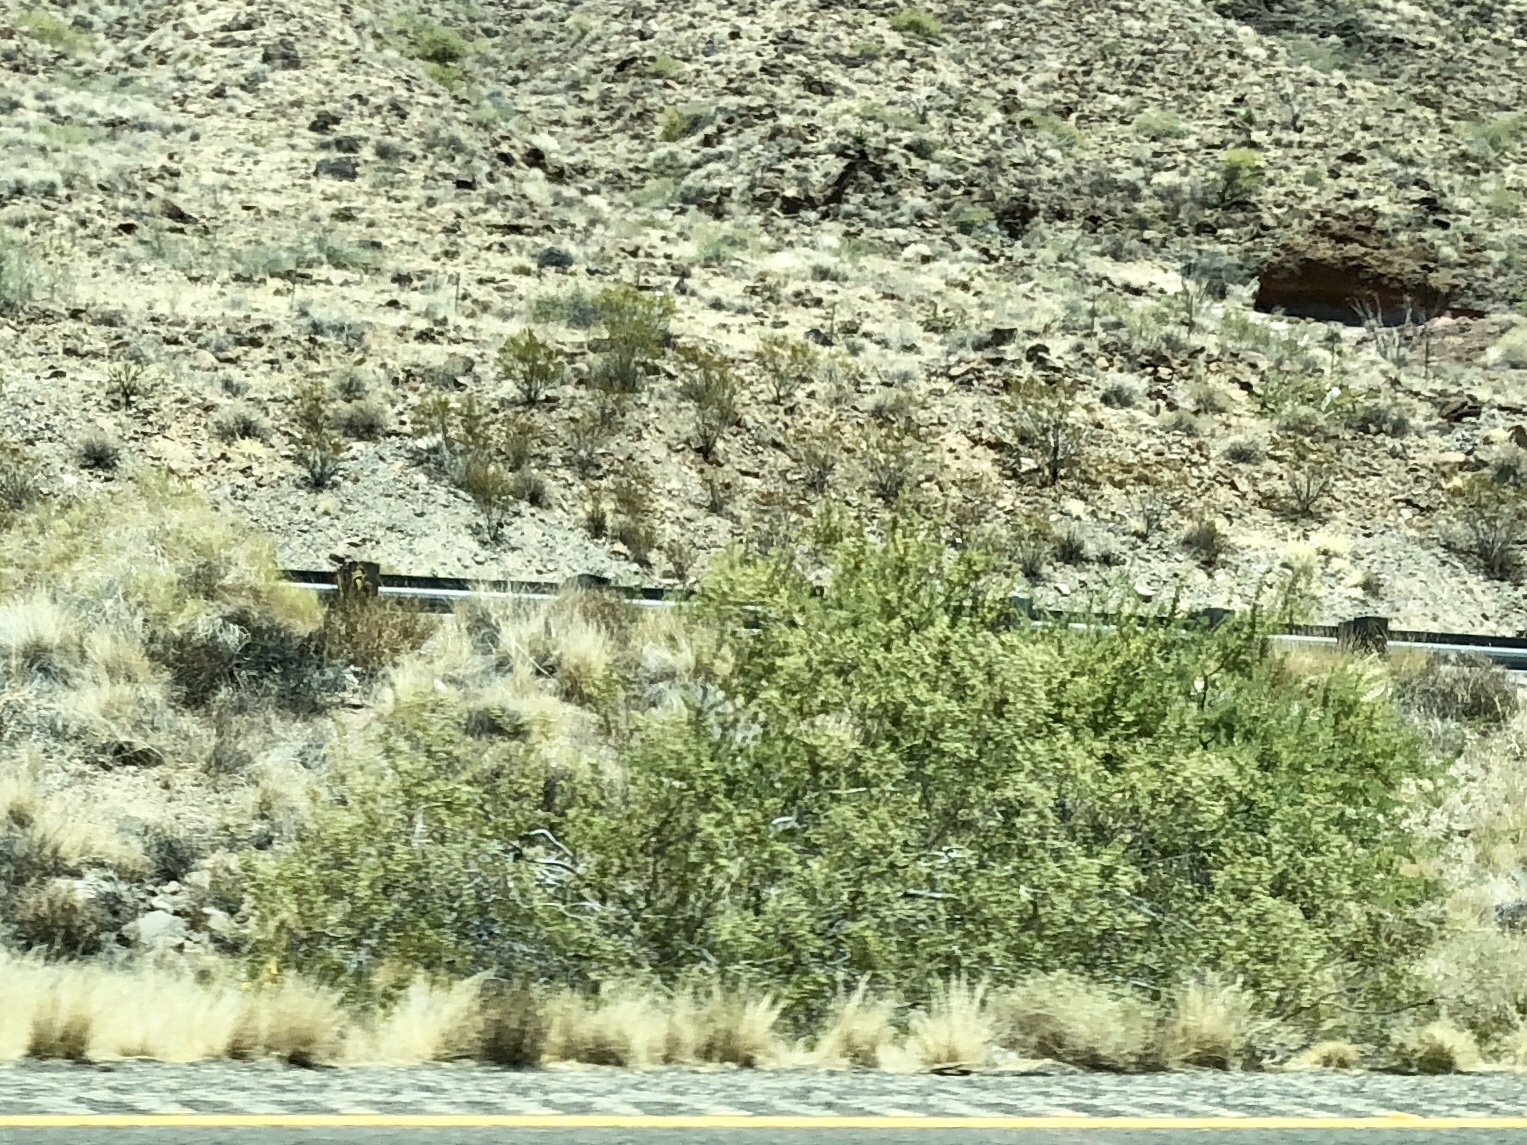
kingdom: Plantae
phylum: Tracheophyta
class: Magnoliopsida
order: Zygophyllales
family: Zygophyllaceae
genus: Larrea
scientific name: Larrea tridentata
